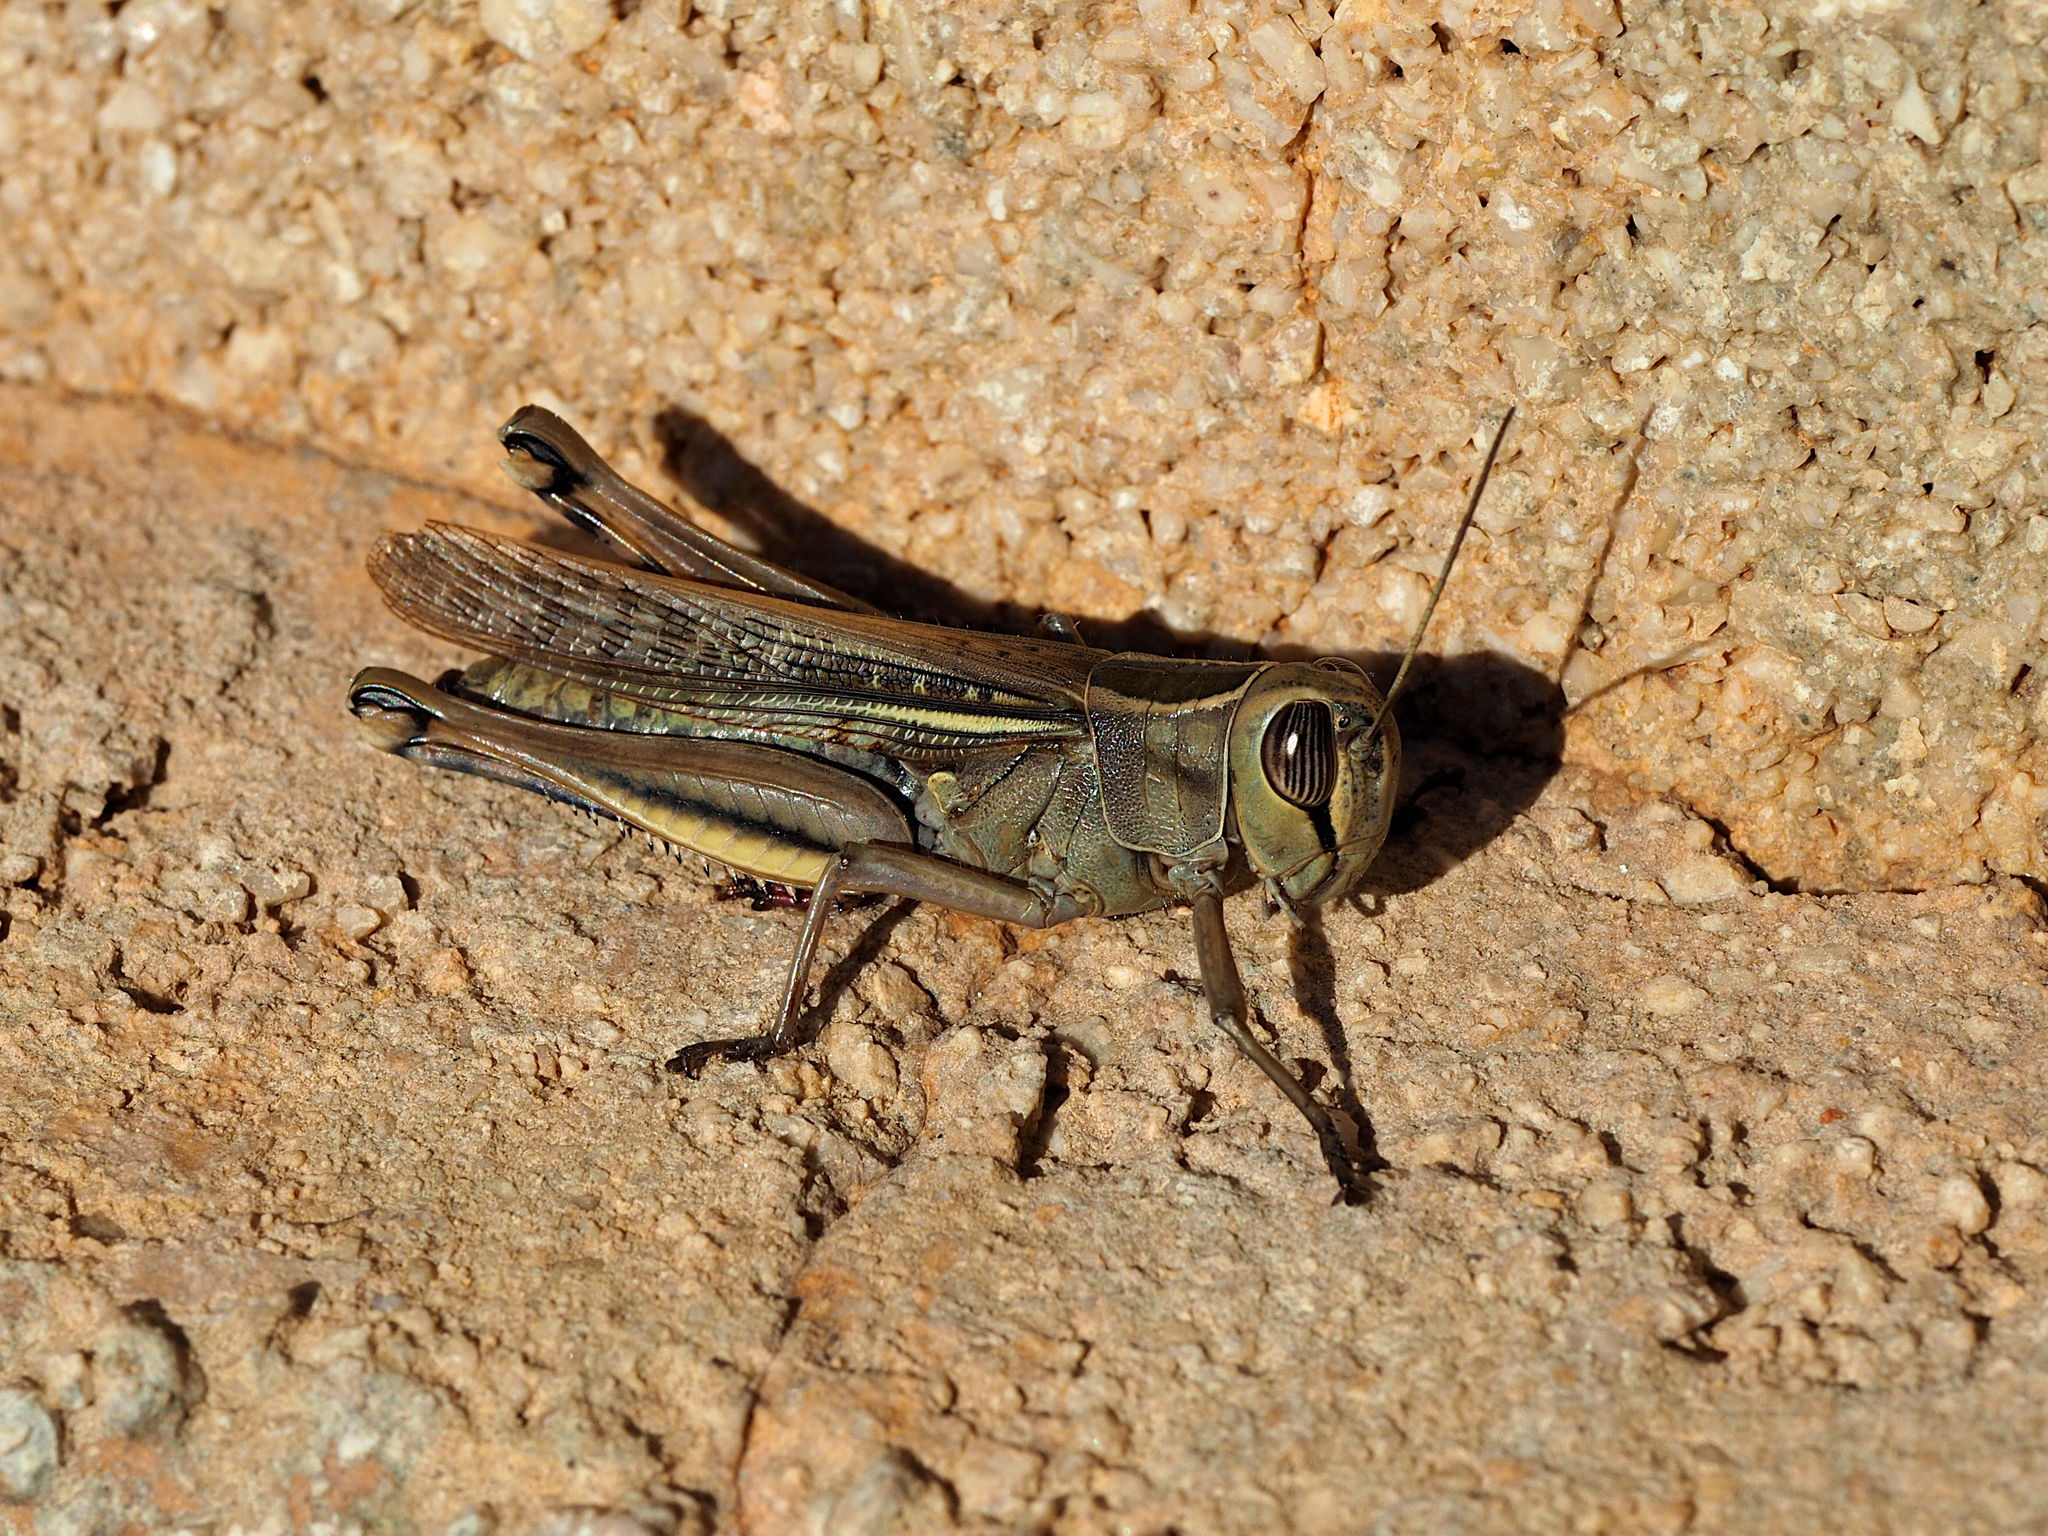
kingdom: Animalia
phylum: Arthropoda
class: Insecta
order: Orthoptera
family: Acrididae
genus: Eyprepocnemis
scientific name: Eyprepocnemis plorans
